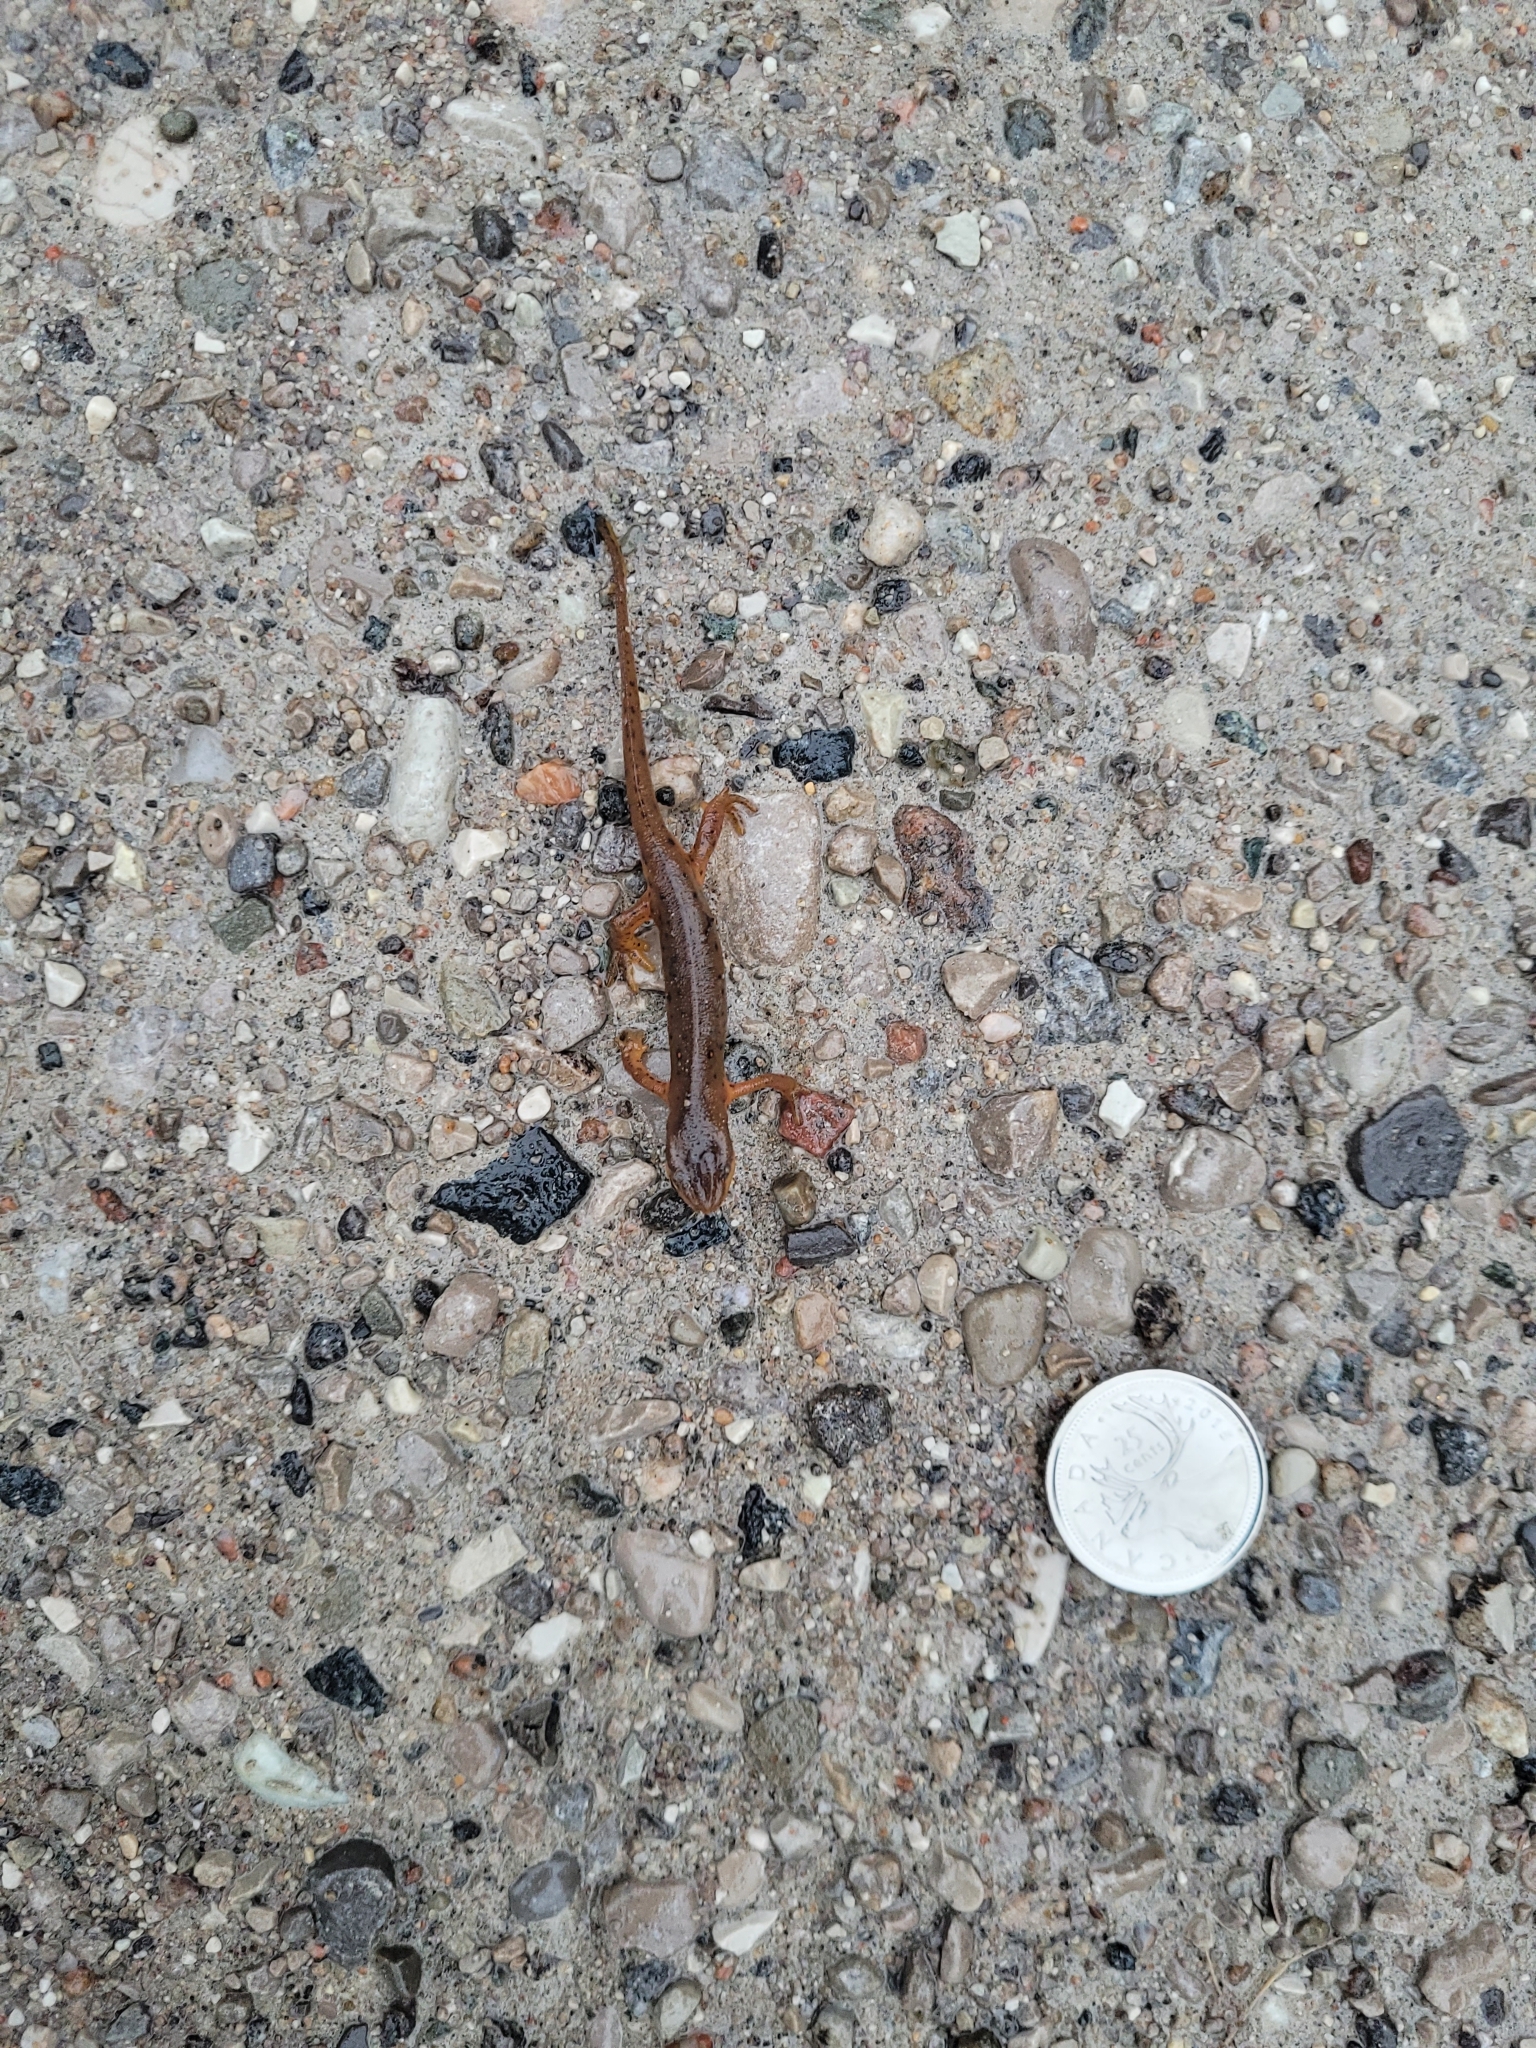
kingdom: Animalia
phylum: Chordata
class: Amphibia
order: Caudata
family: Salamandridae
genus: Notophthalmus
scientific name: Notophthalmus viridescens
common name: Eastern newt
